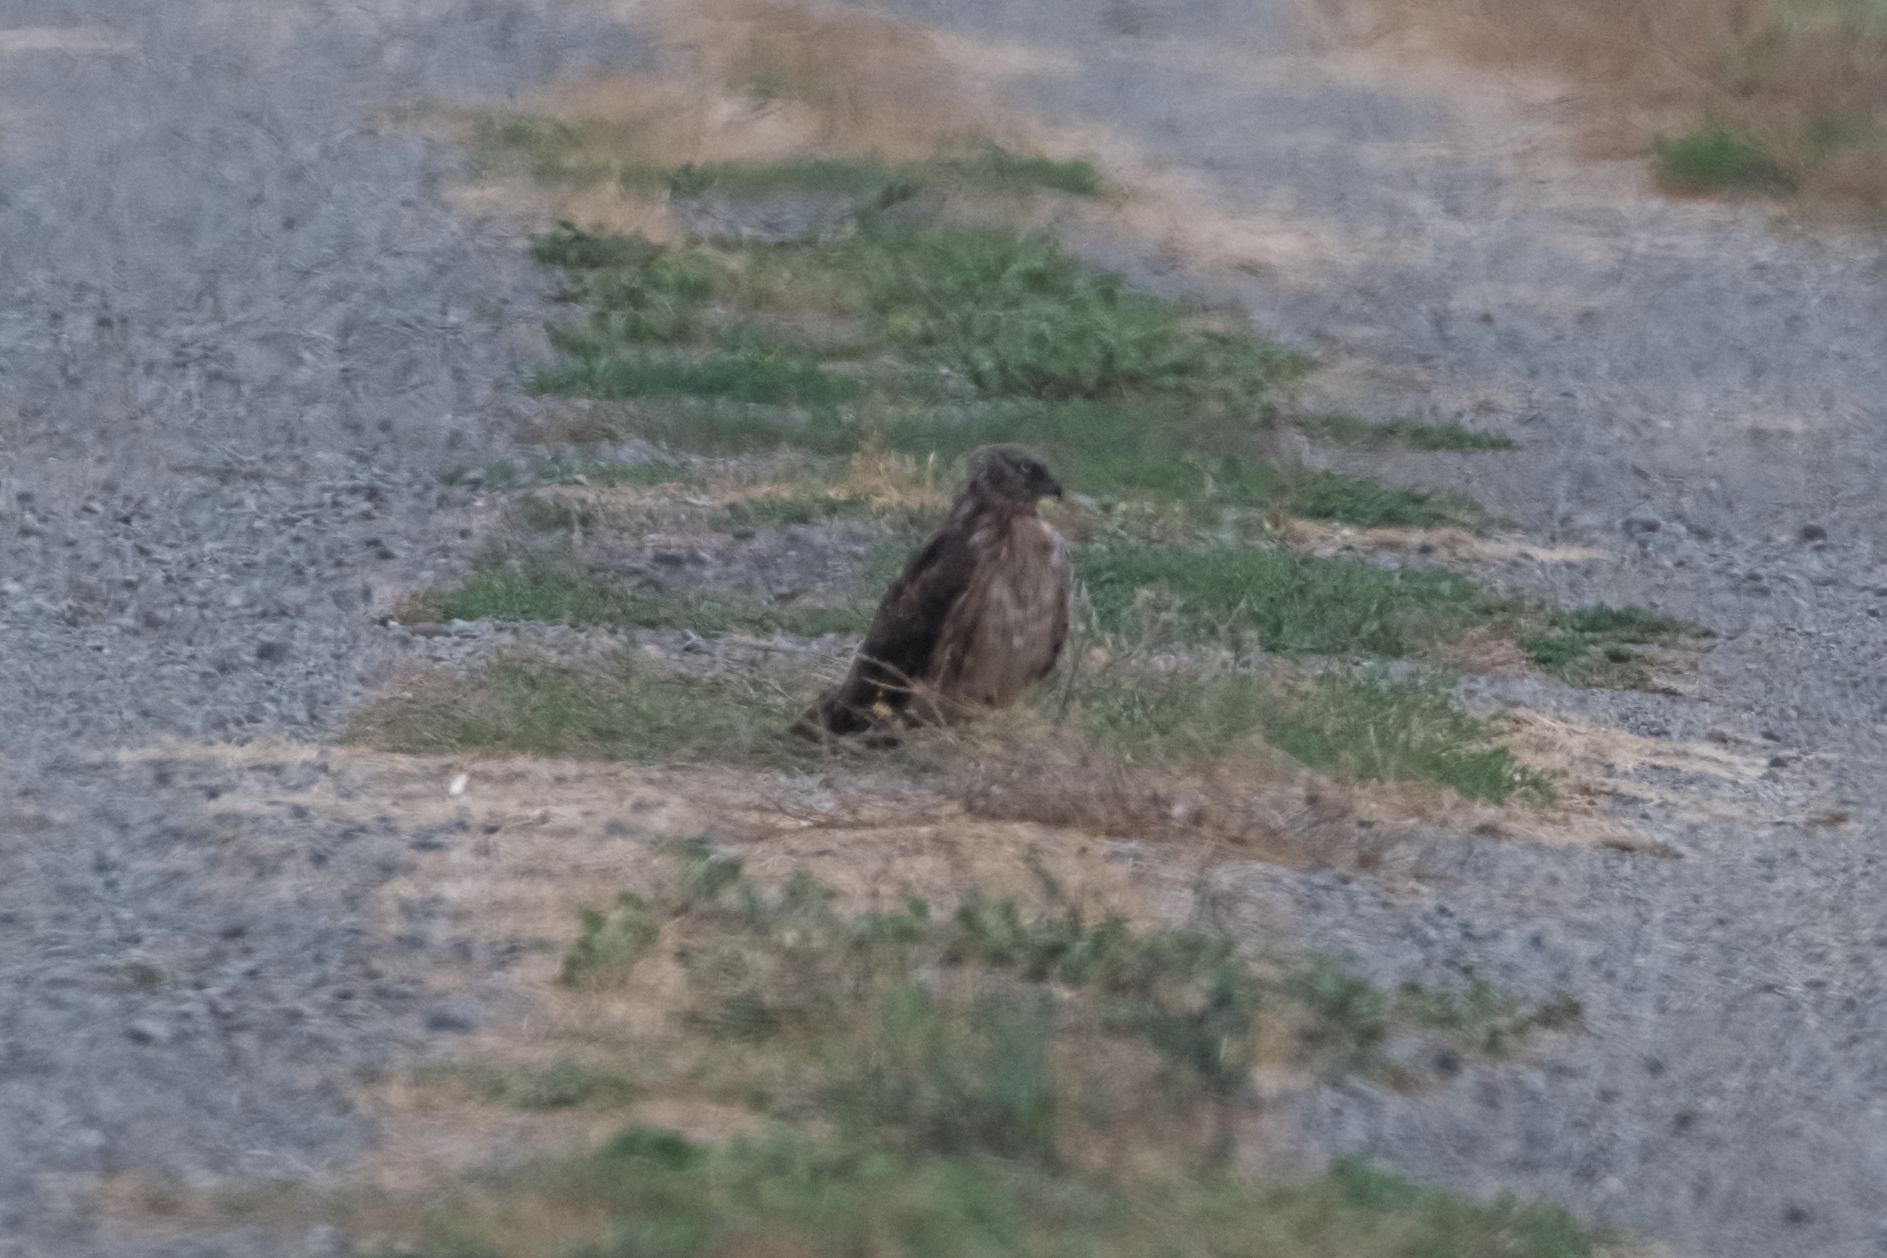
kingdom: Animalia
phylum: Chordata
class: Aves
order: Accipitriformes
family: Accipitridae
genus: Circus
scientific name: Circus cyaneus
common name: Hen harrier
